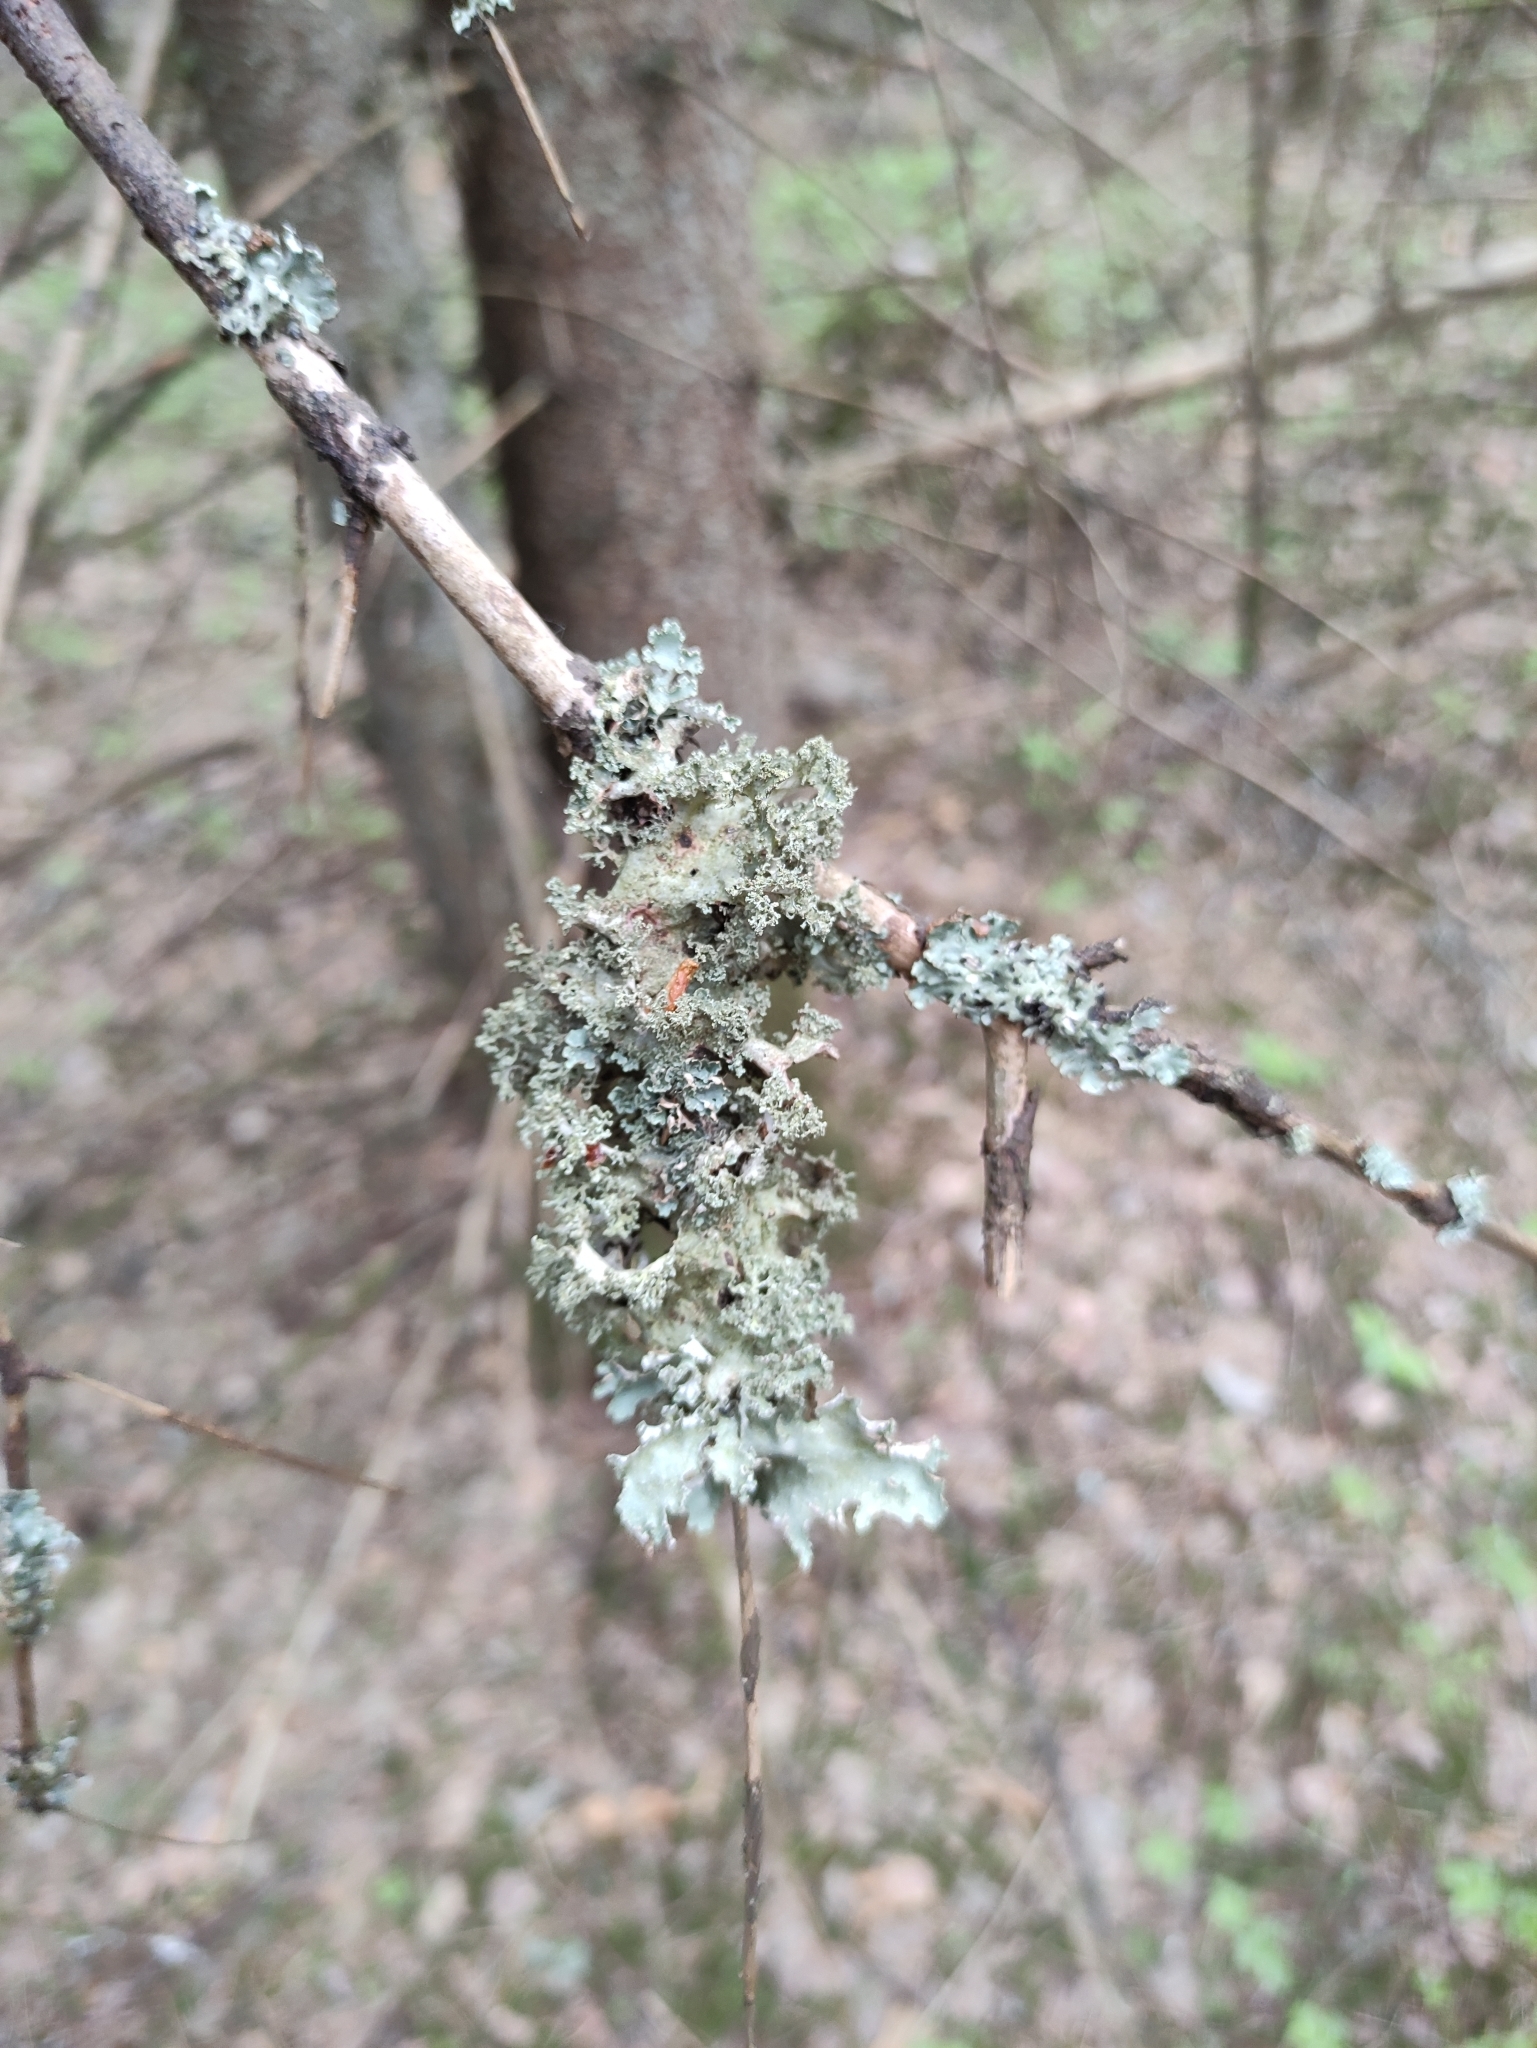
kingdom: Fungi
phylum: Ascomycota
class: Lecanoromycetes
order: Lecanorales
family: Parmeliaceae
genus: Platismatia
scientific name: Platismatia glauca
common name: Varied rag lichen
